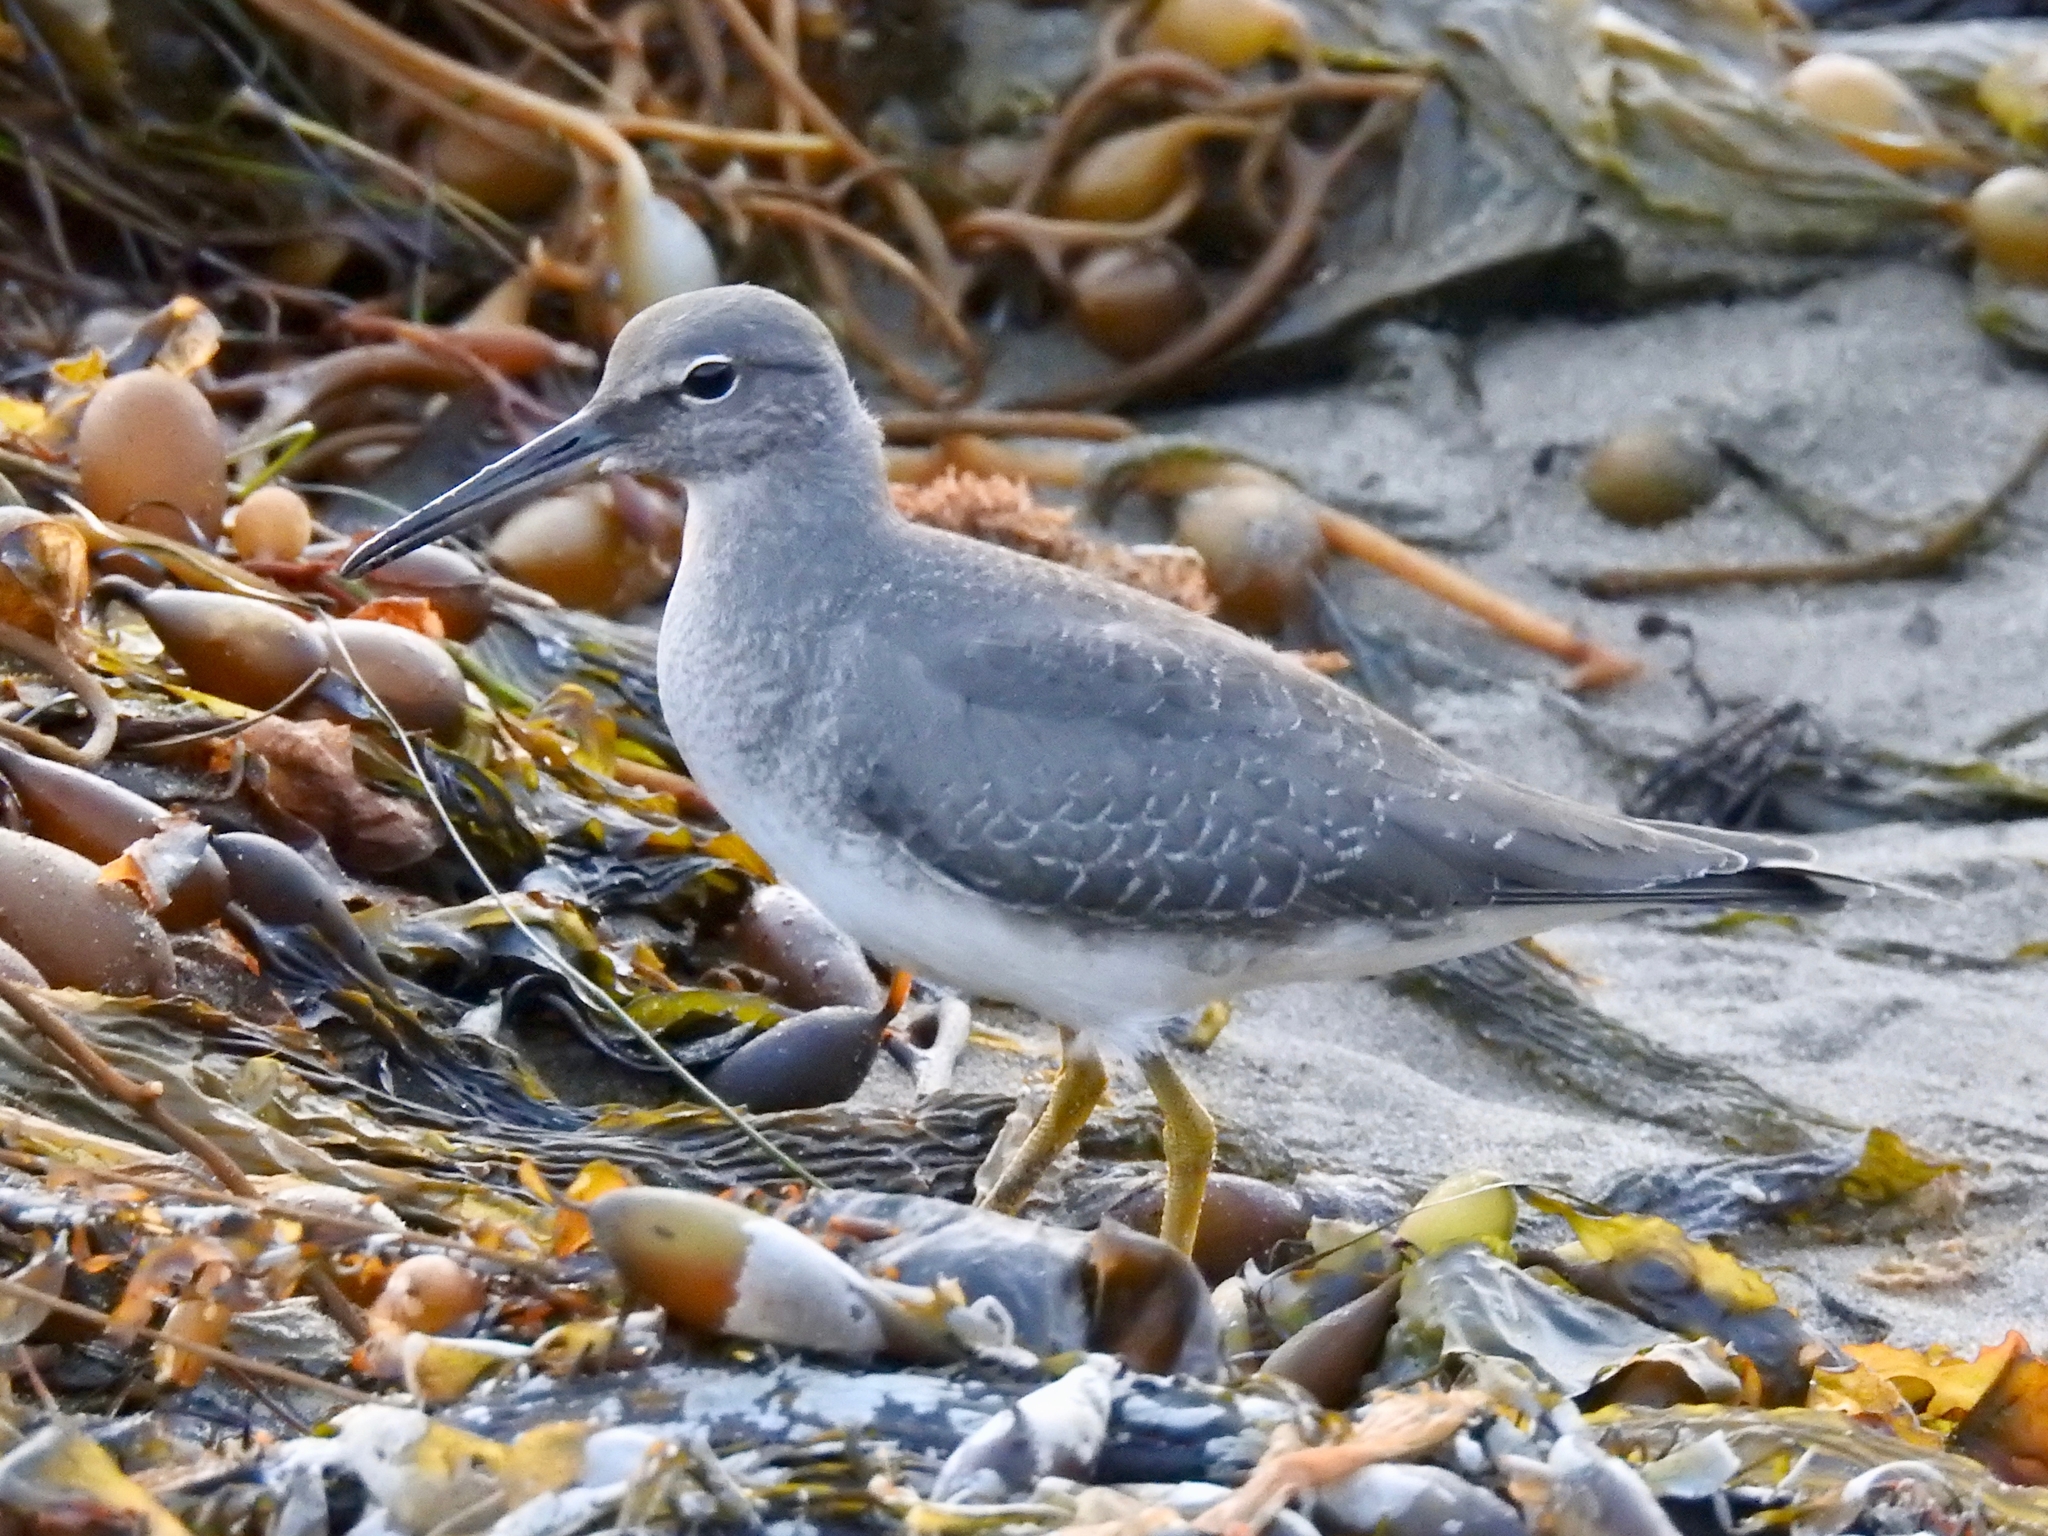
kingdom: Animalia
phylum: Chordata
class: Aves
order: Charadriiformes
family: Scolopacidae
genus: Tringa
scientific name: Tringa incana
